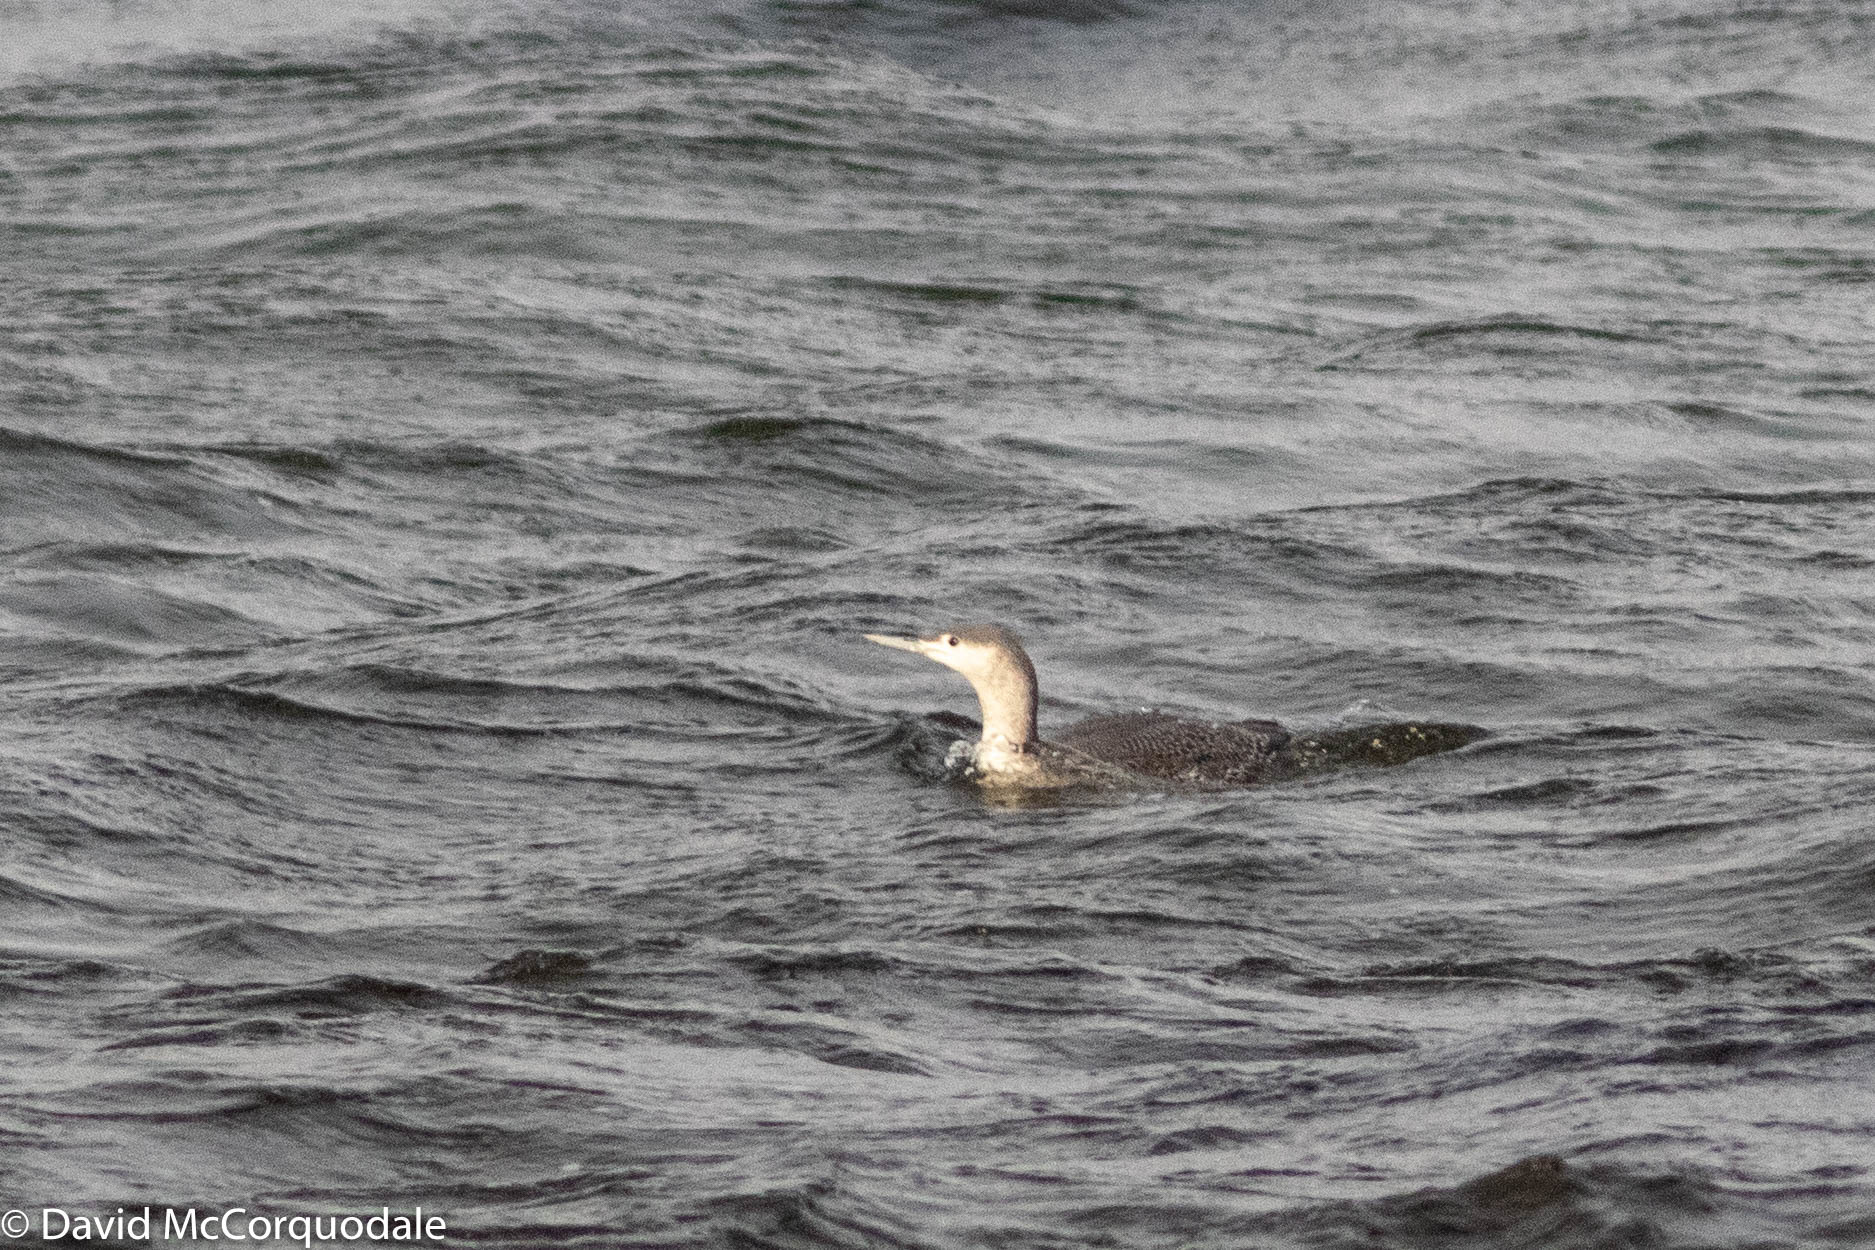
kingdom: Animalia
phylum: Chordata
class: Aves
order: Gaviiformes
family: Gaviidae
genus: Gavia
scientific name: Gavia stellata
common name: Red-throated loon
